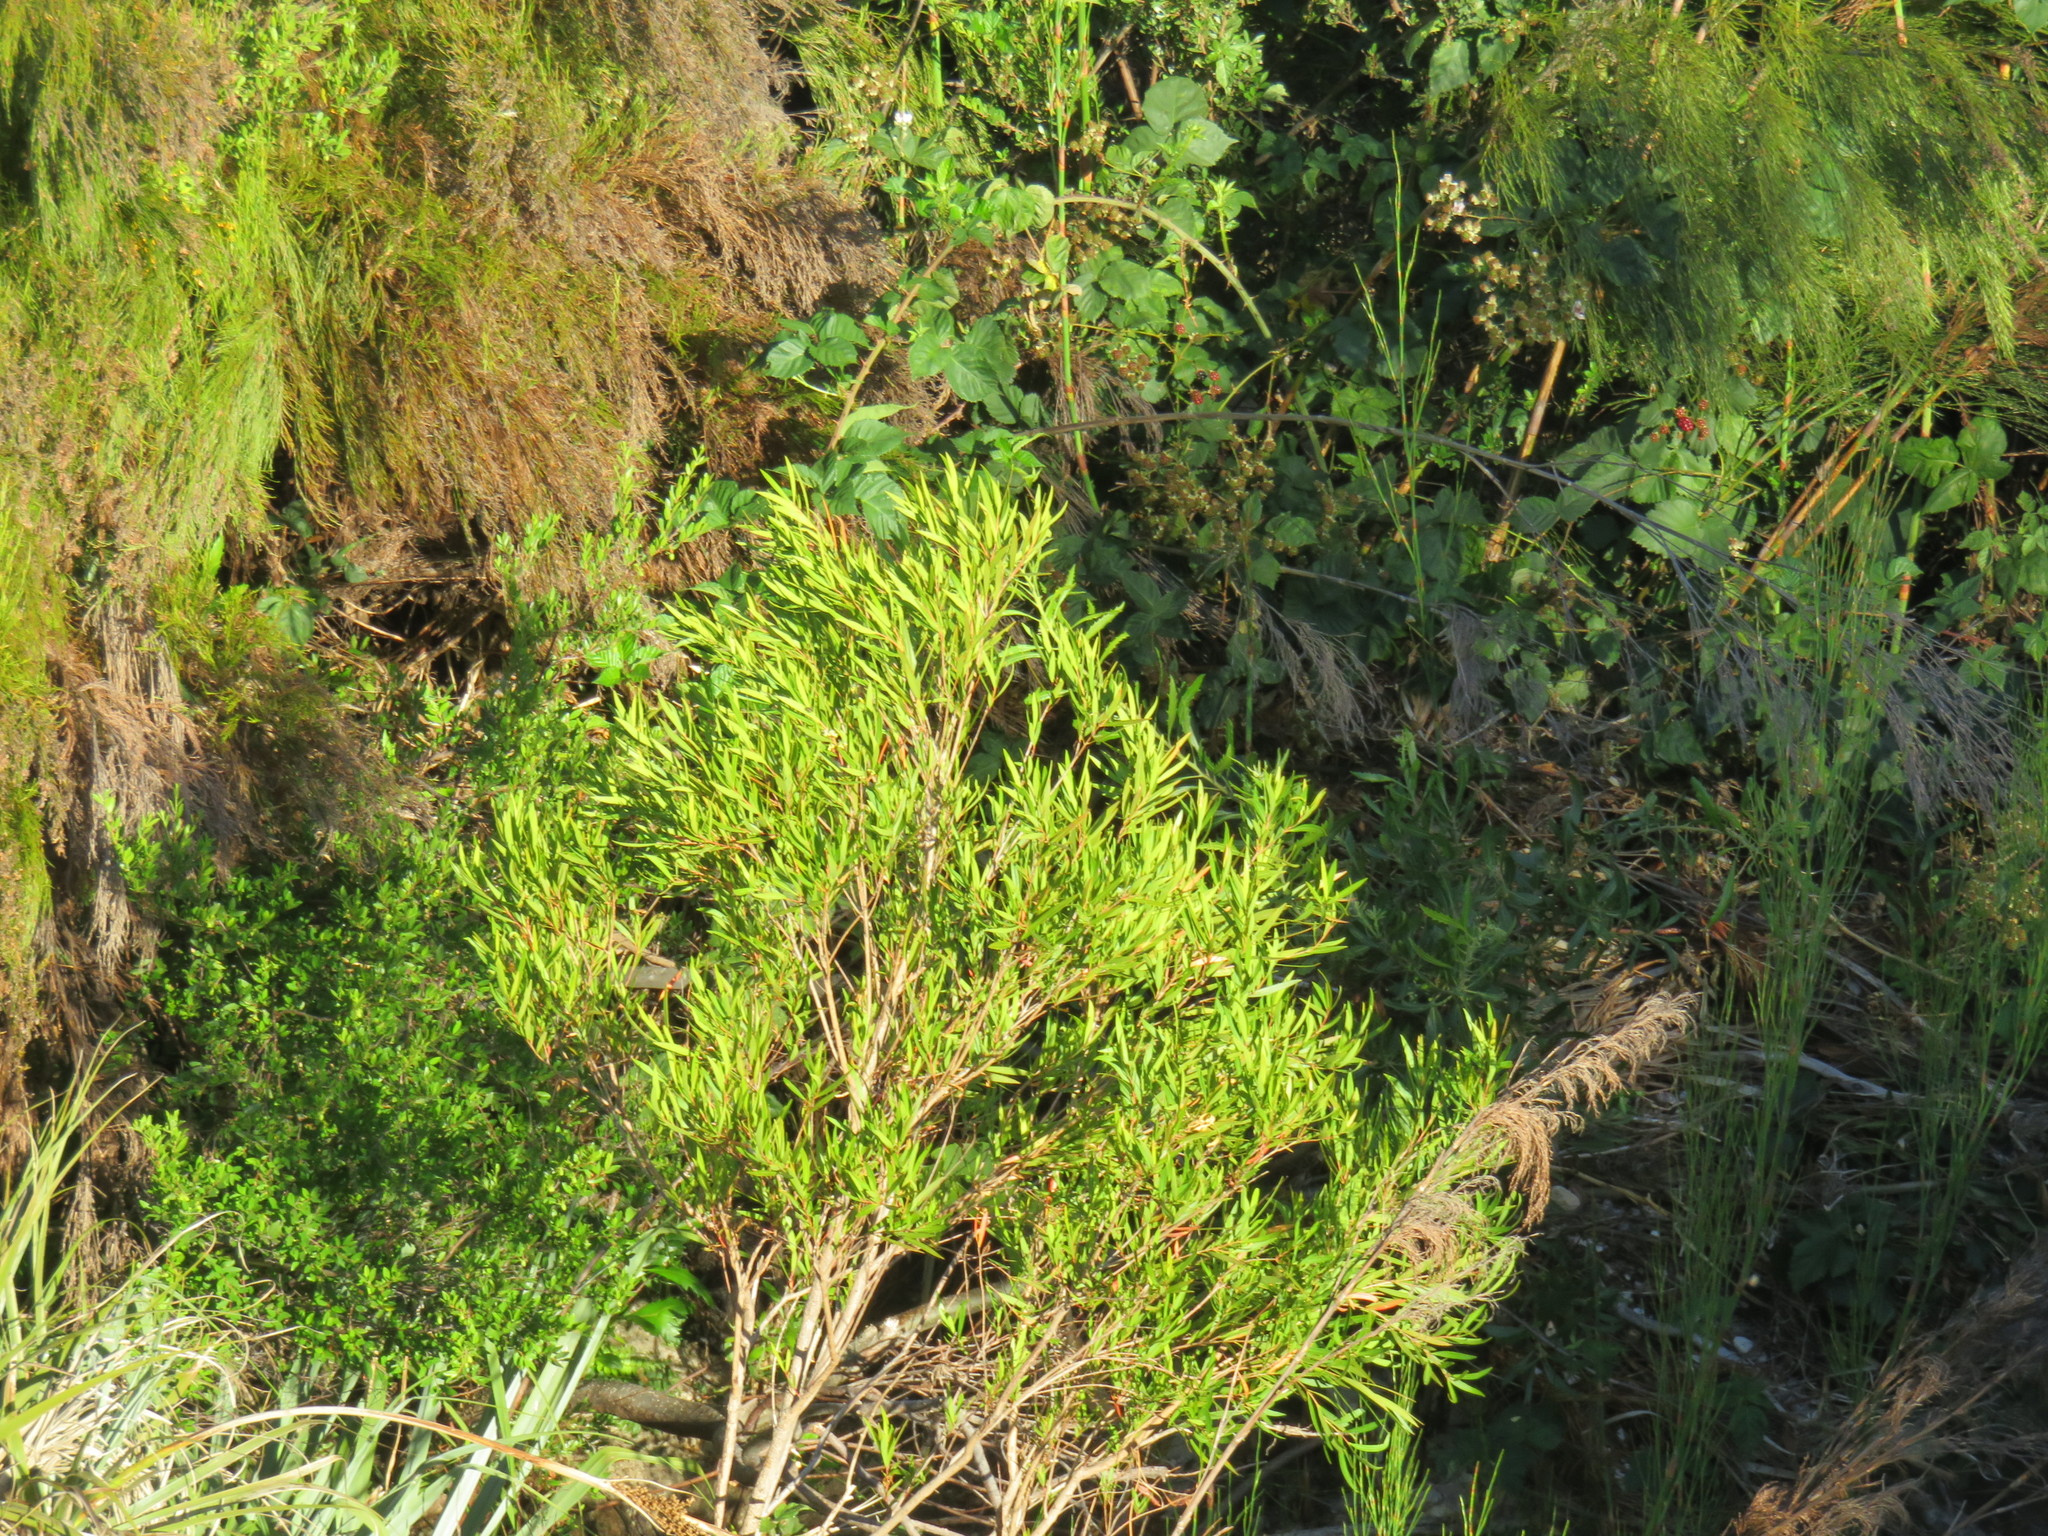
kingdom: Plantae
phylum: Tracheophyta
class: Magnoliopsida
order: Myrtales
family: Myrtaceae
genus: Callistemon
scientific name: Callistemon lanceolatus
